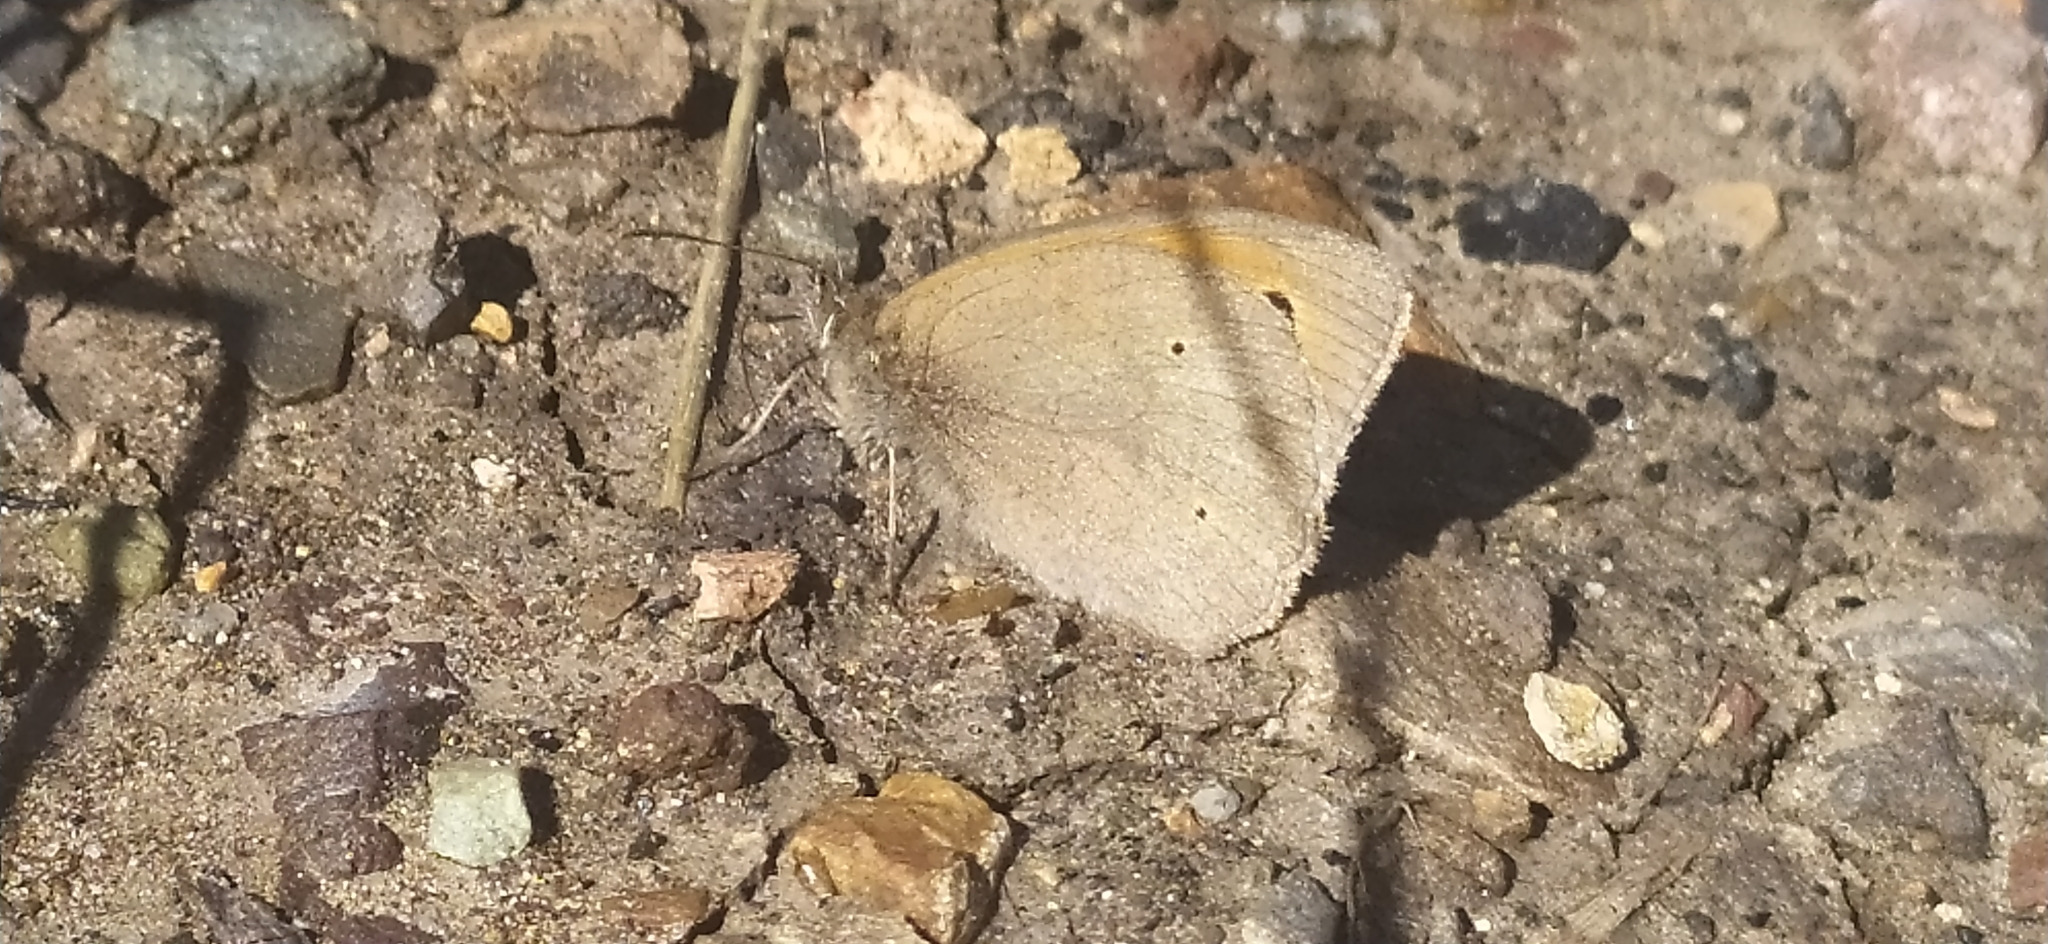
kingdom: Animalia
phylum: Arthropoda
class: Insecta
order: Lepidoptera
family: Nymphalidae
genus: Maniola
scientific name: Maniola jurtina
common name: Meadow brown
